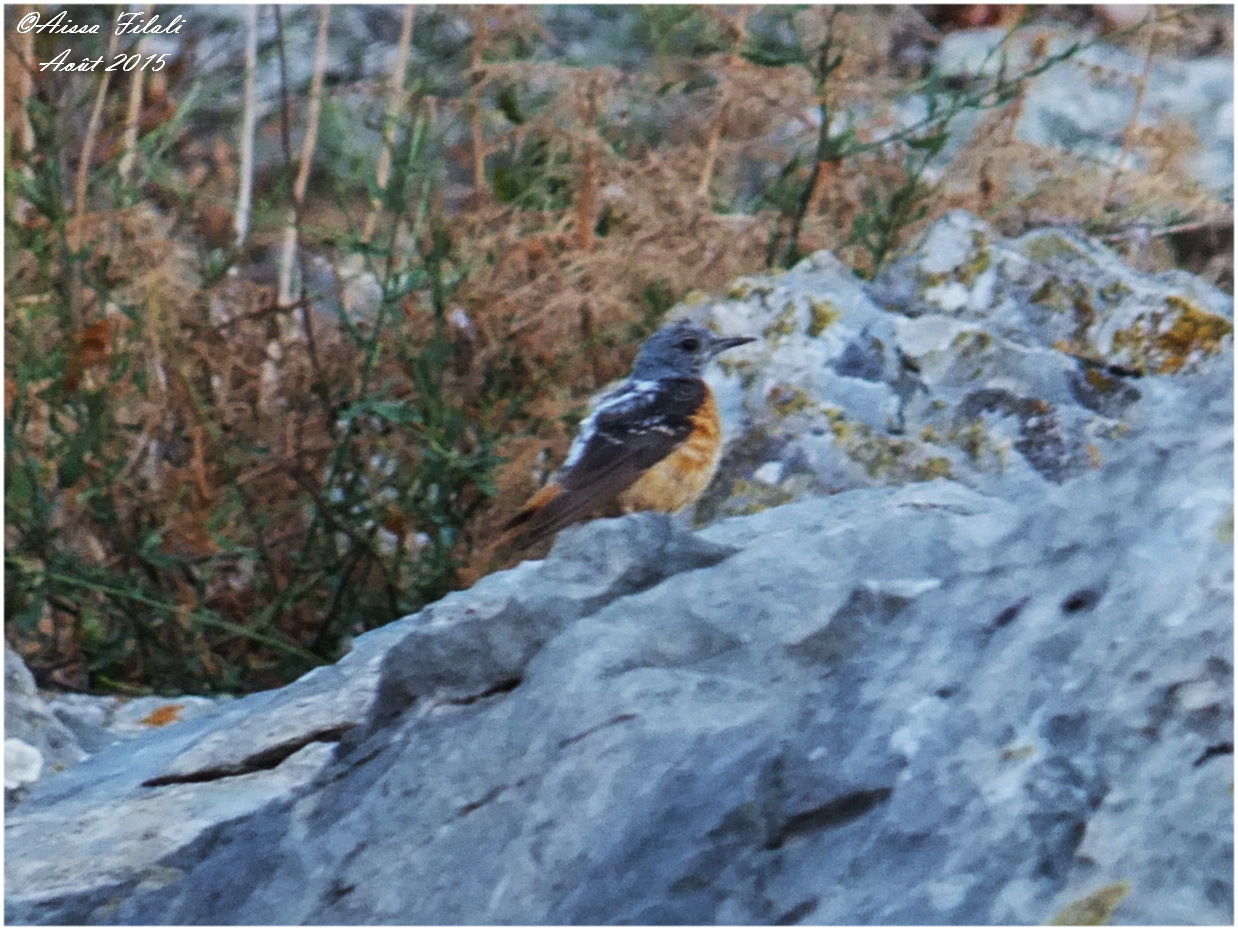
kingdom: Animalia
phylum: Chordata
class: Aves
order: Passeriformes
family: Muscicapidae
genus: Monticola
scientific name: Monticola saxatilis
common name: Rufous-tailed rock thrush
